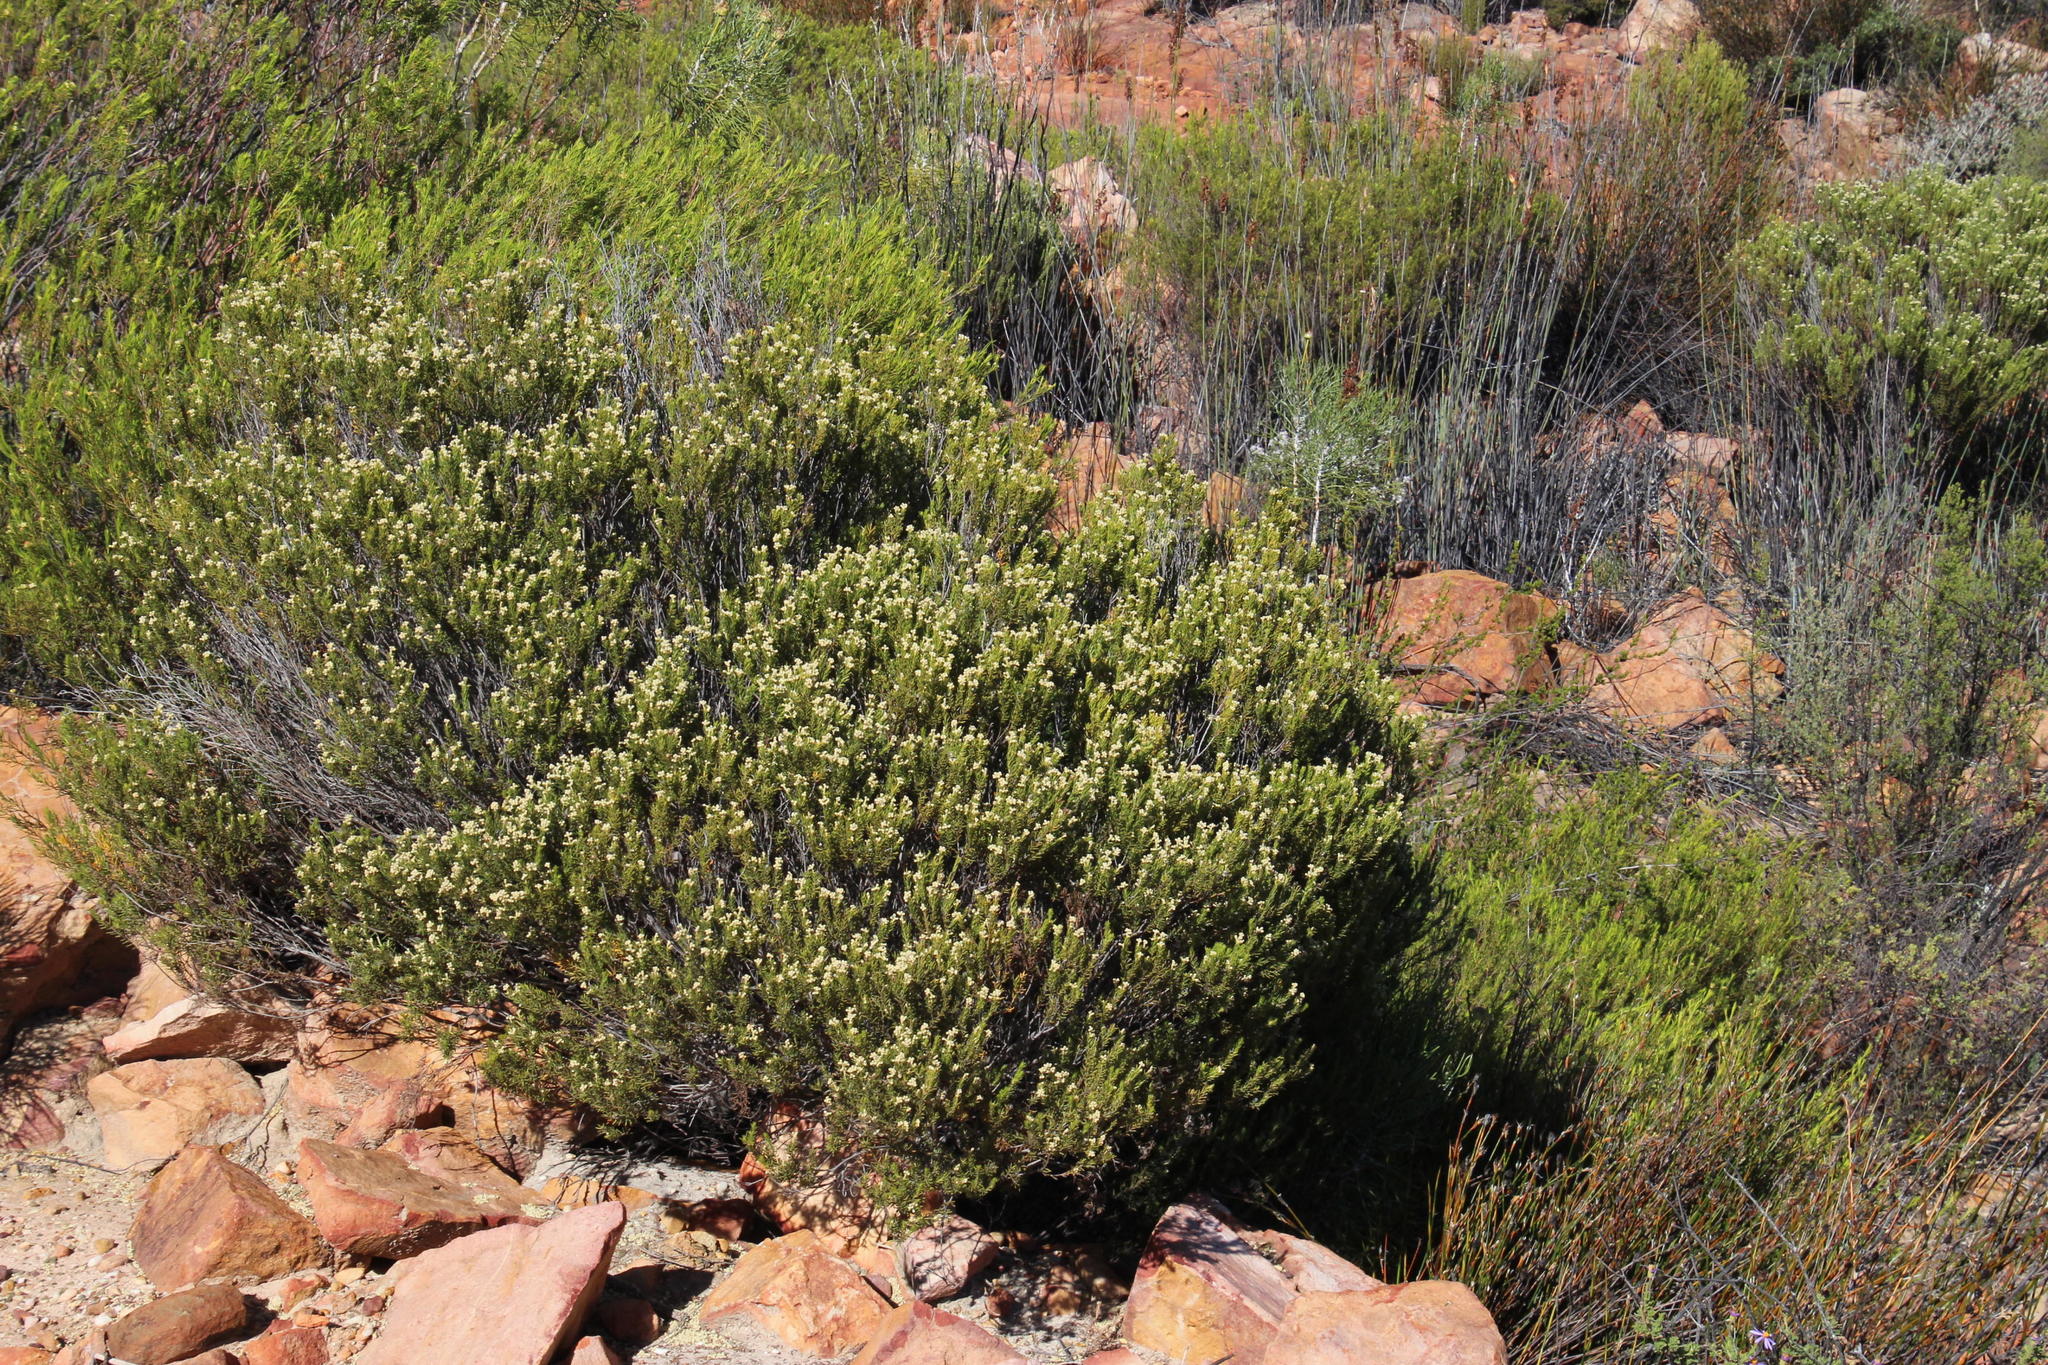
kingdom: Plantae
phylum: Tracheophyta
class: Magnoliopsida
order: Rosales
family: Rhamnaceae
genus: Phylica
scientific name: Phylica rigidifolia
